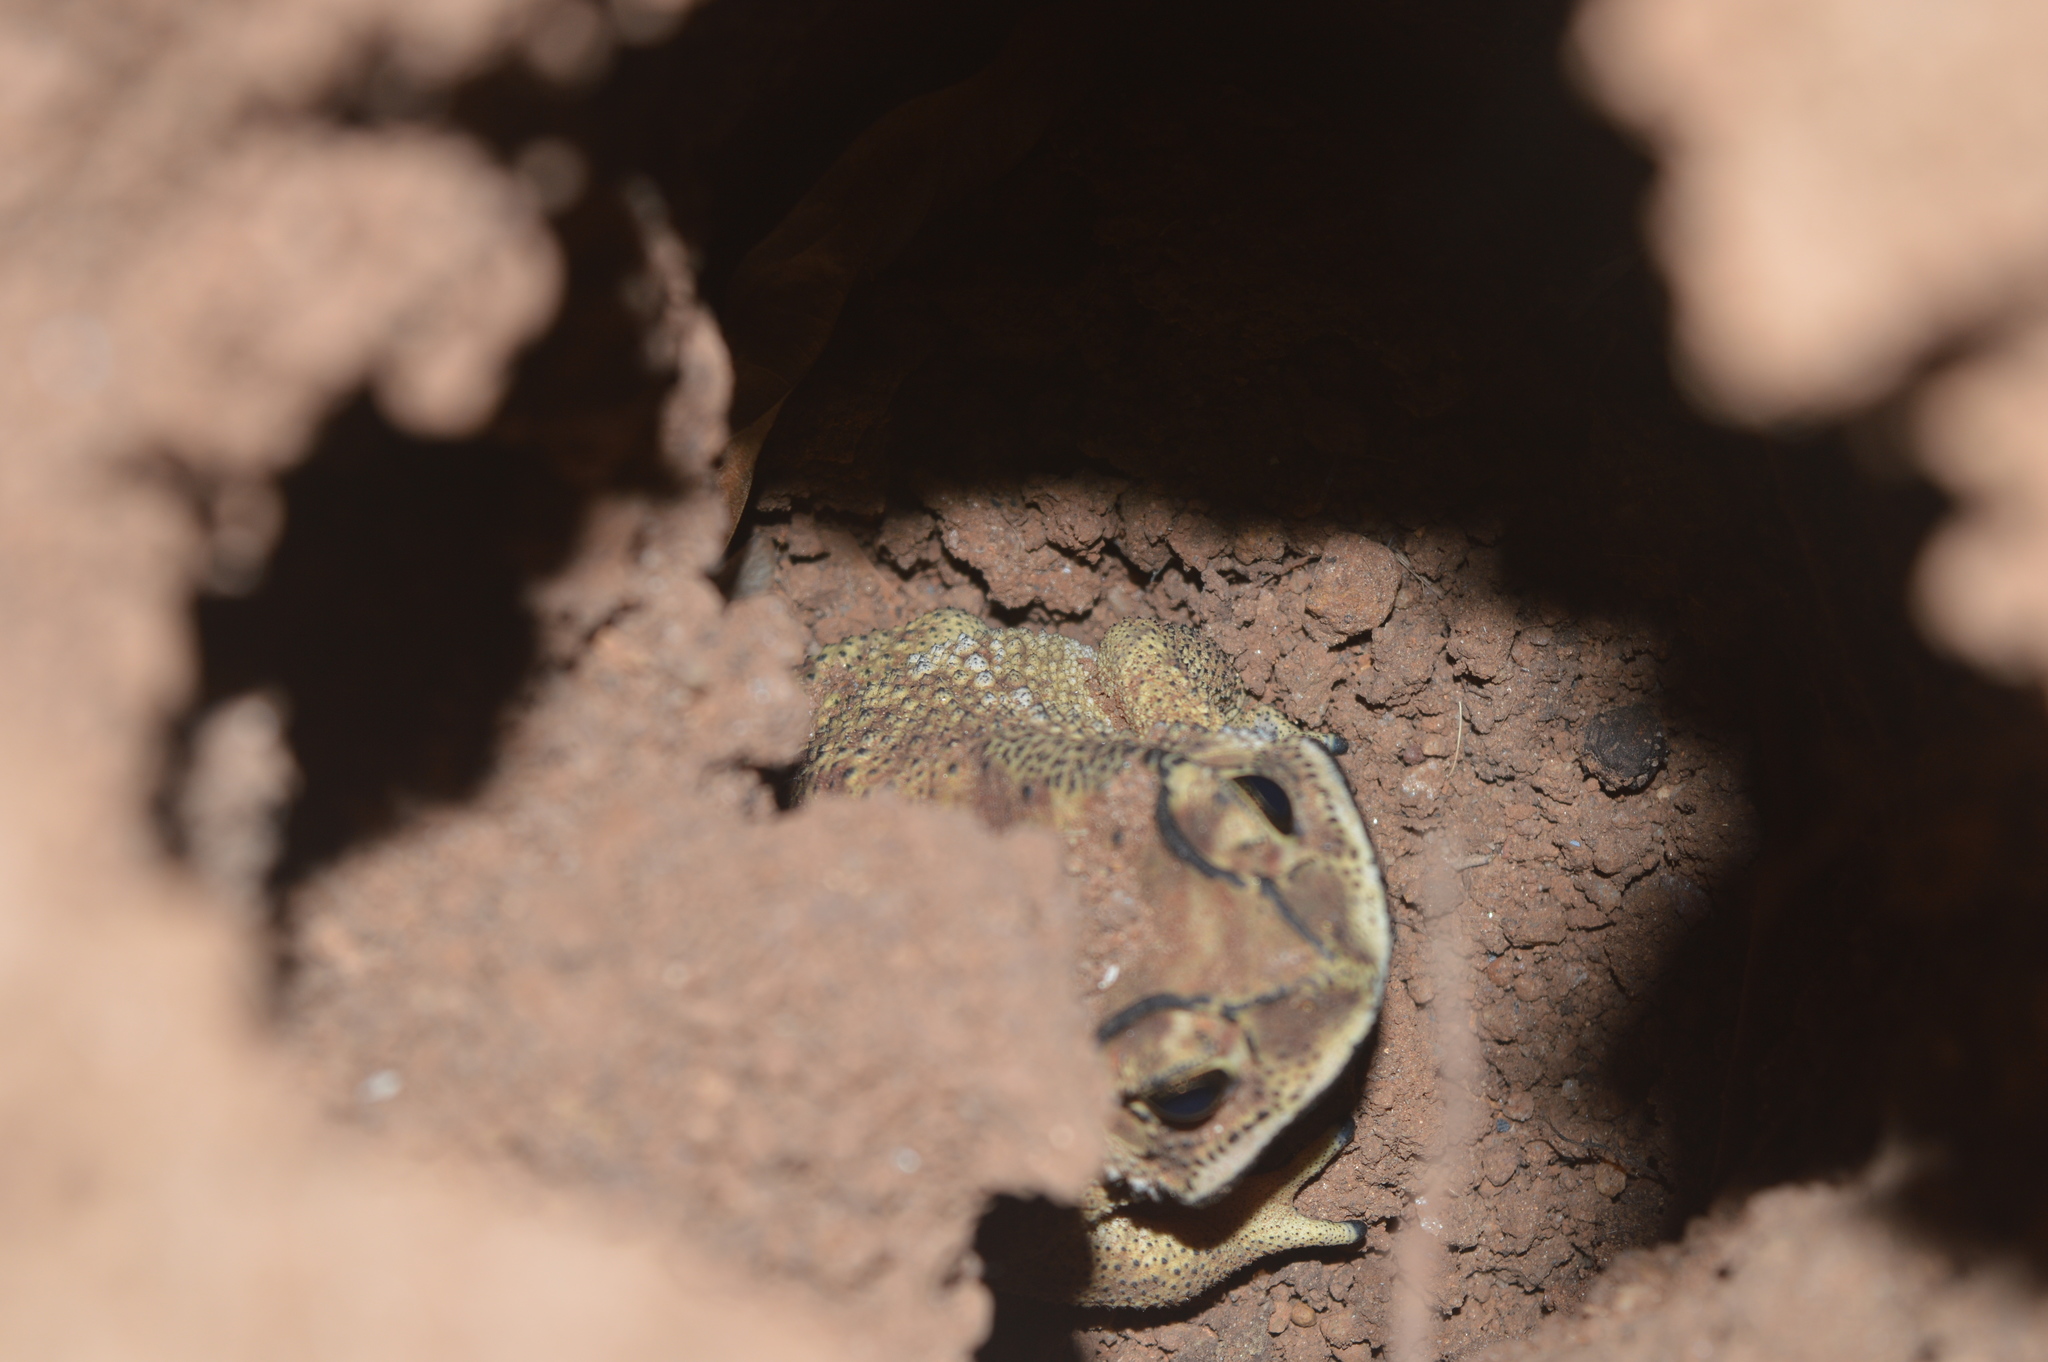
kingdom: Animalia
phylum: Chordata
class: Amphibia
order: Anura
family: Bufonidae
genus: Duttaphrynus
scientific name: Duttaphrynus melanostictus
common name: Common sunda toad
